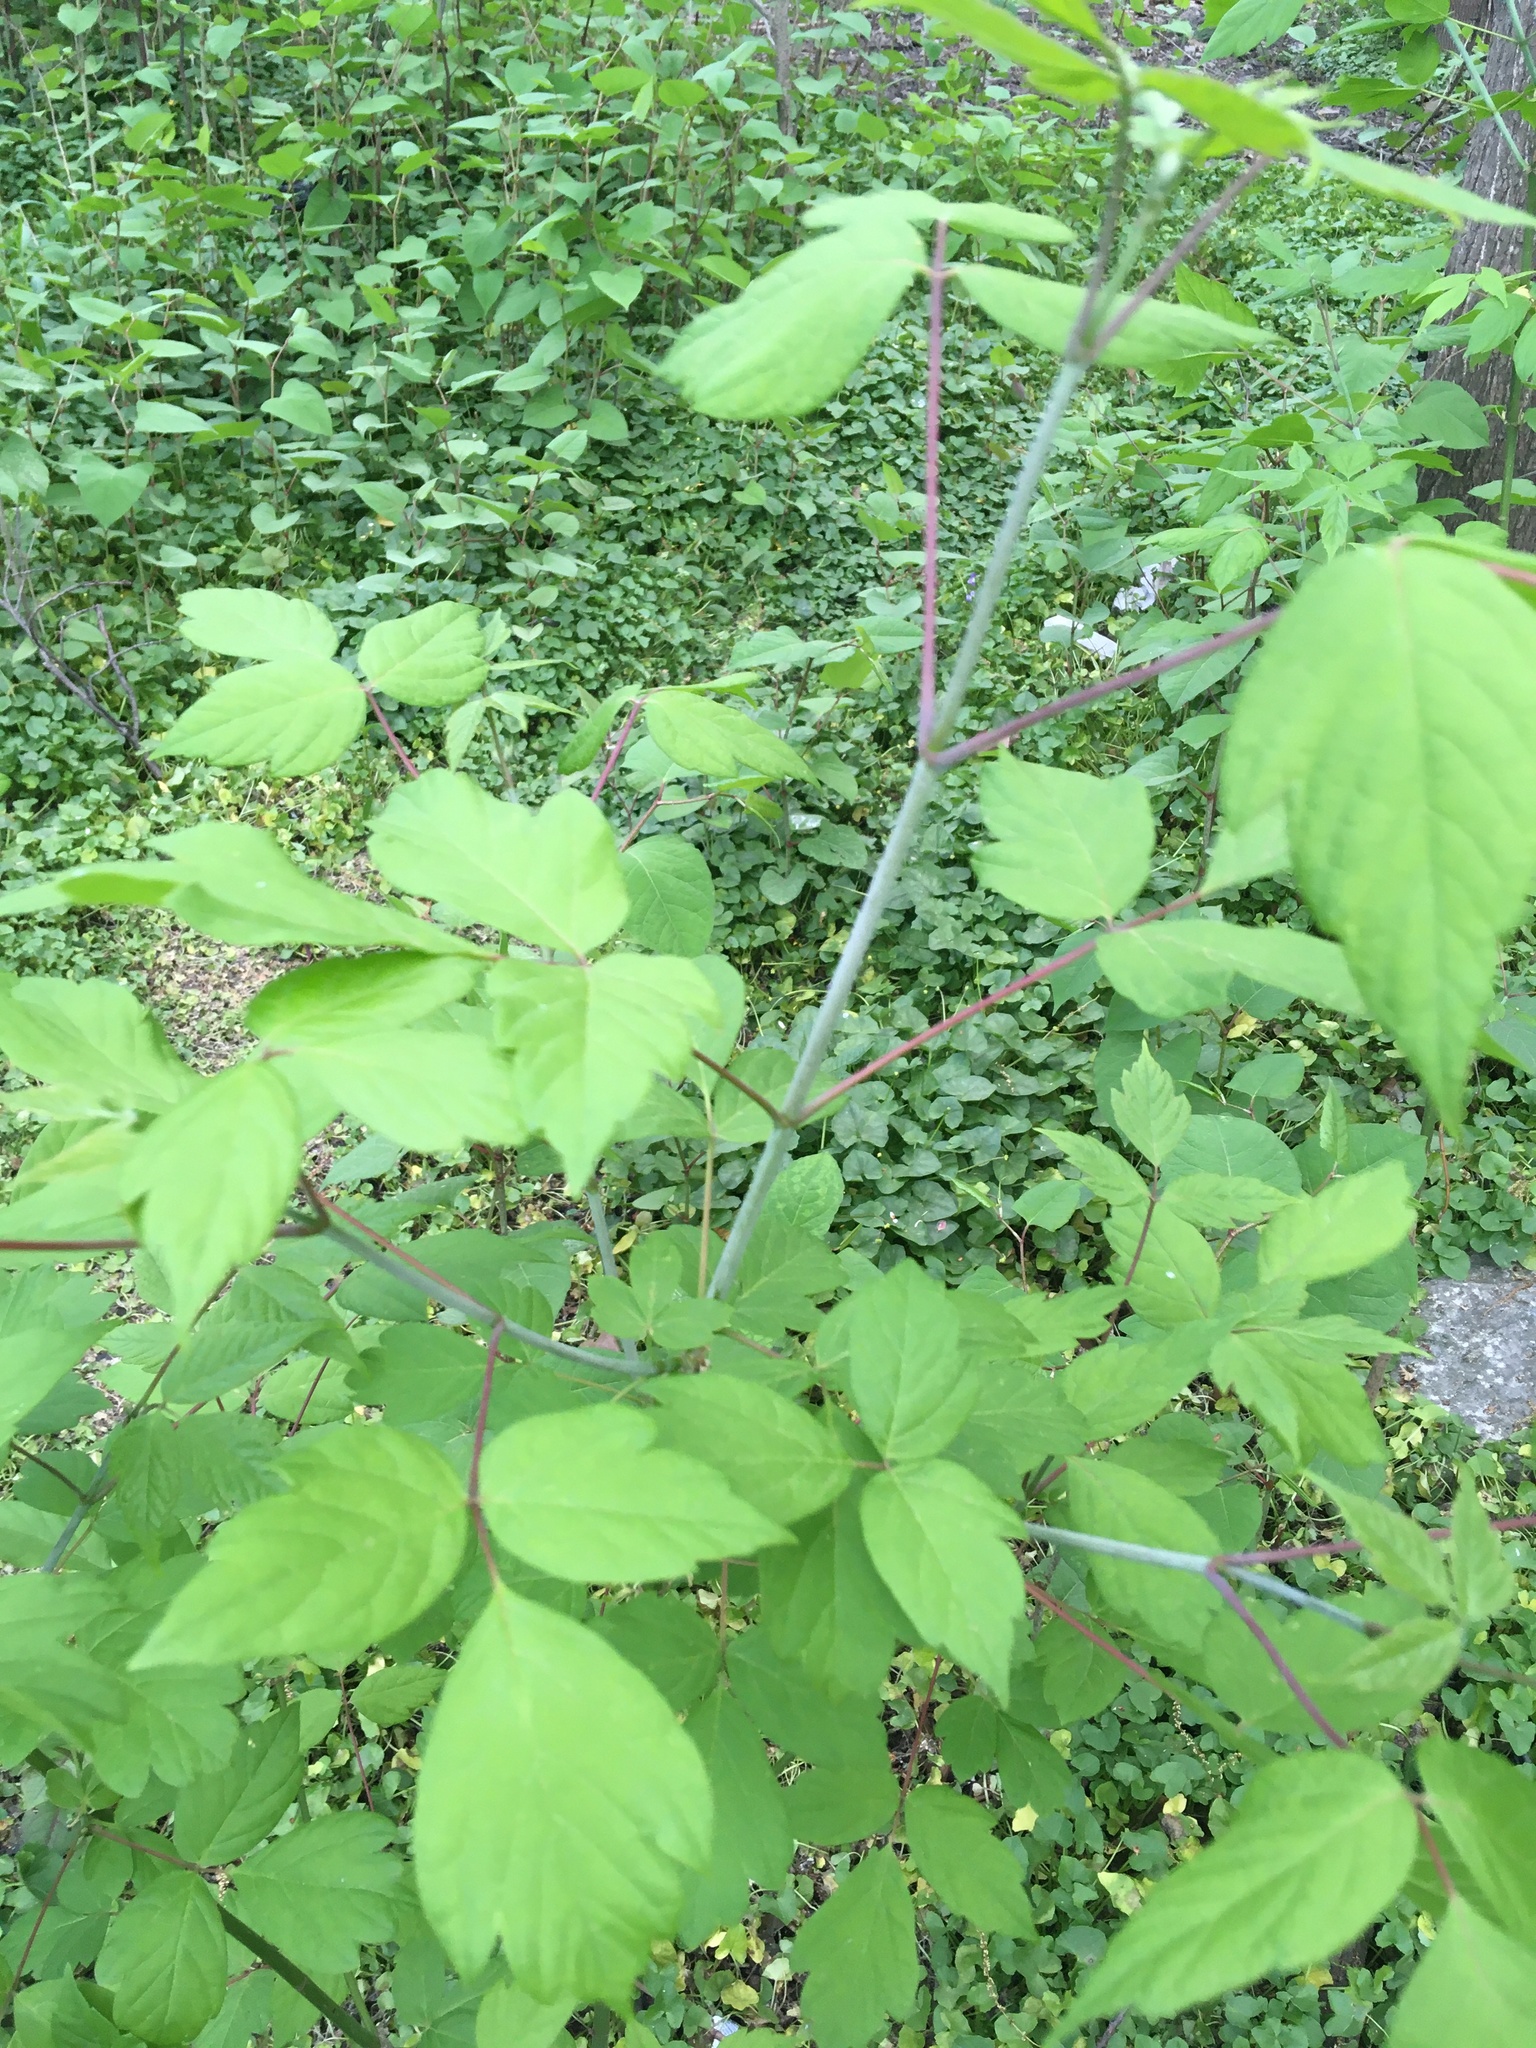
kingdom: Plantae
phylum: Tracheophyta
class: Magnoliopsida
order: Sapindales
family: Sapindaceae
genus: Acer
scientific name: Acer negundo
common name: Ashleaf maple
